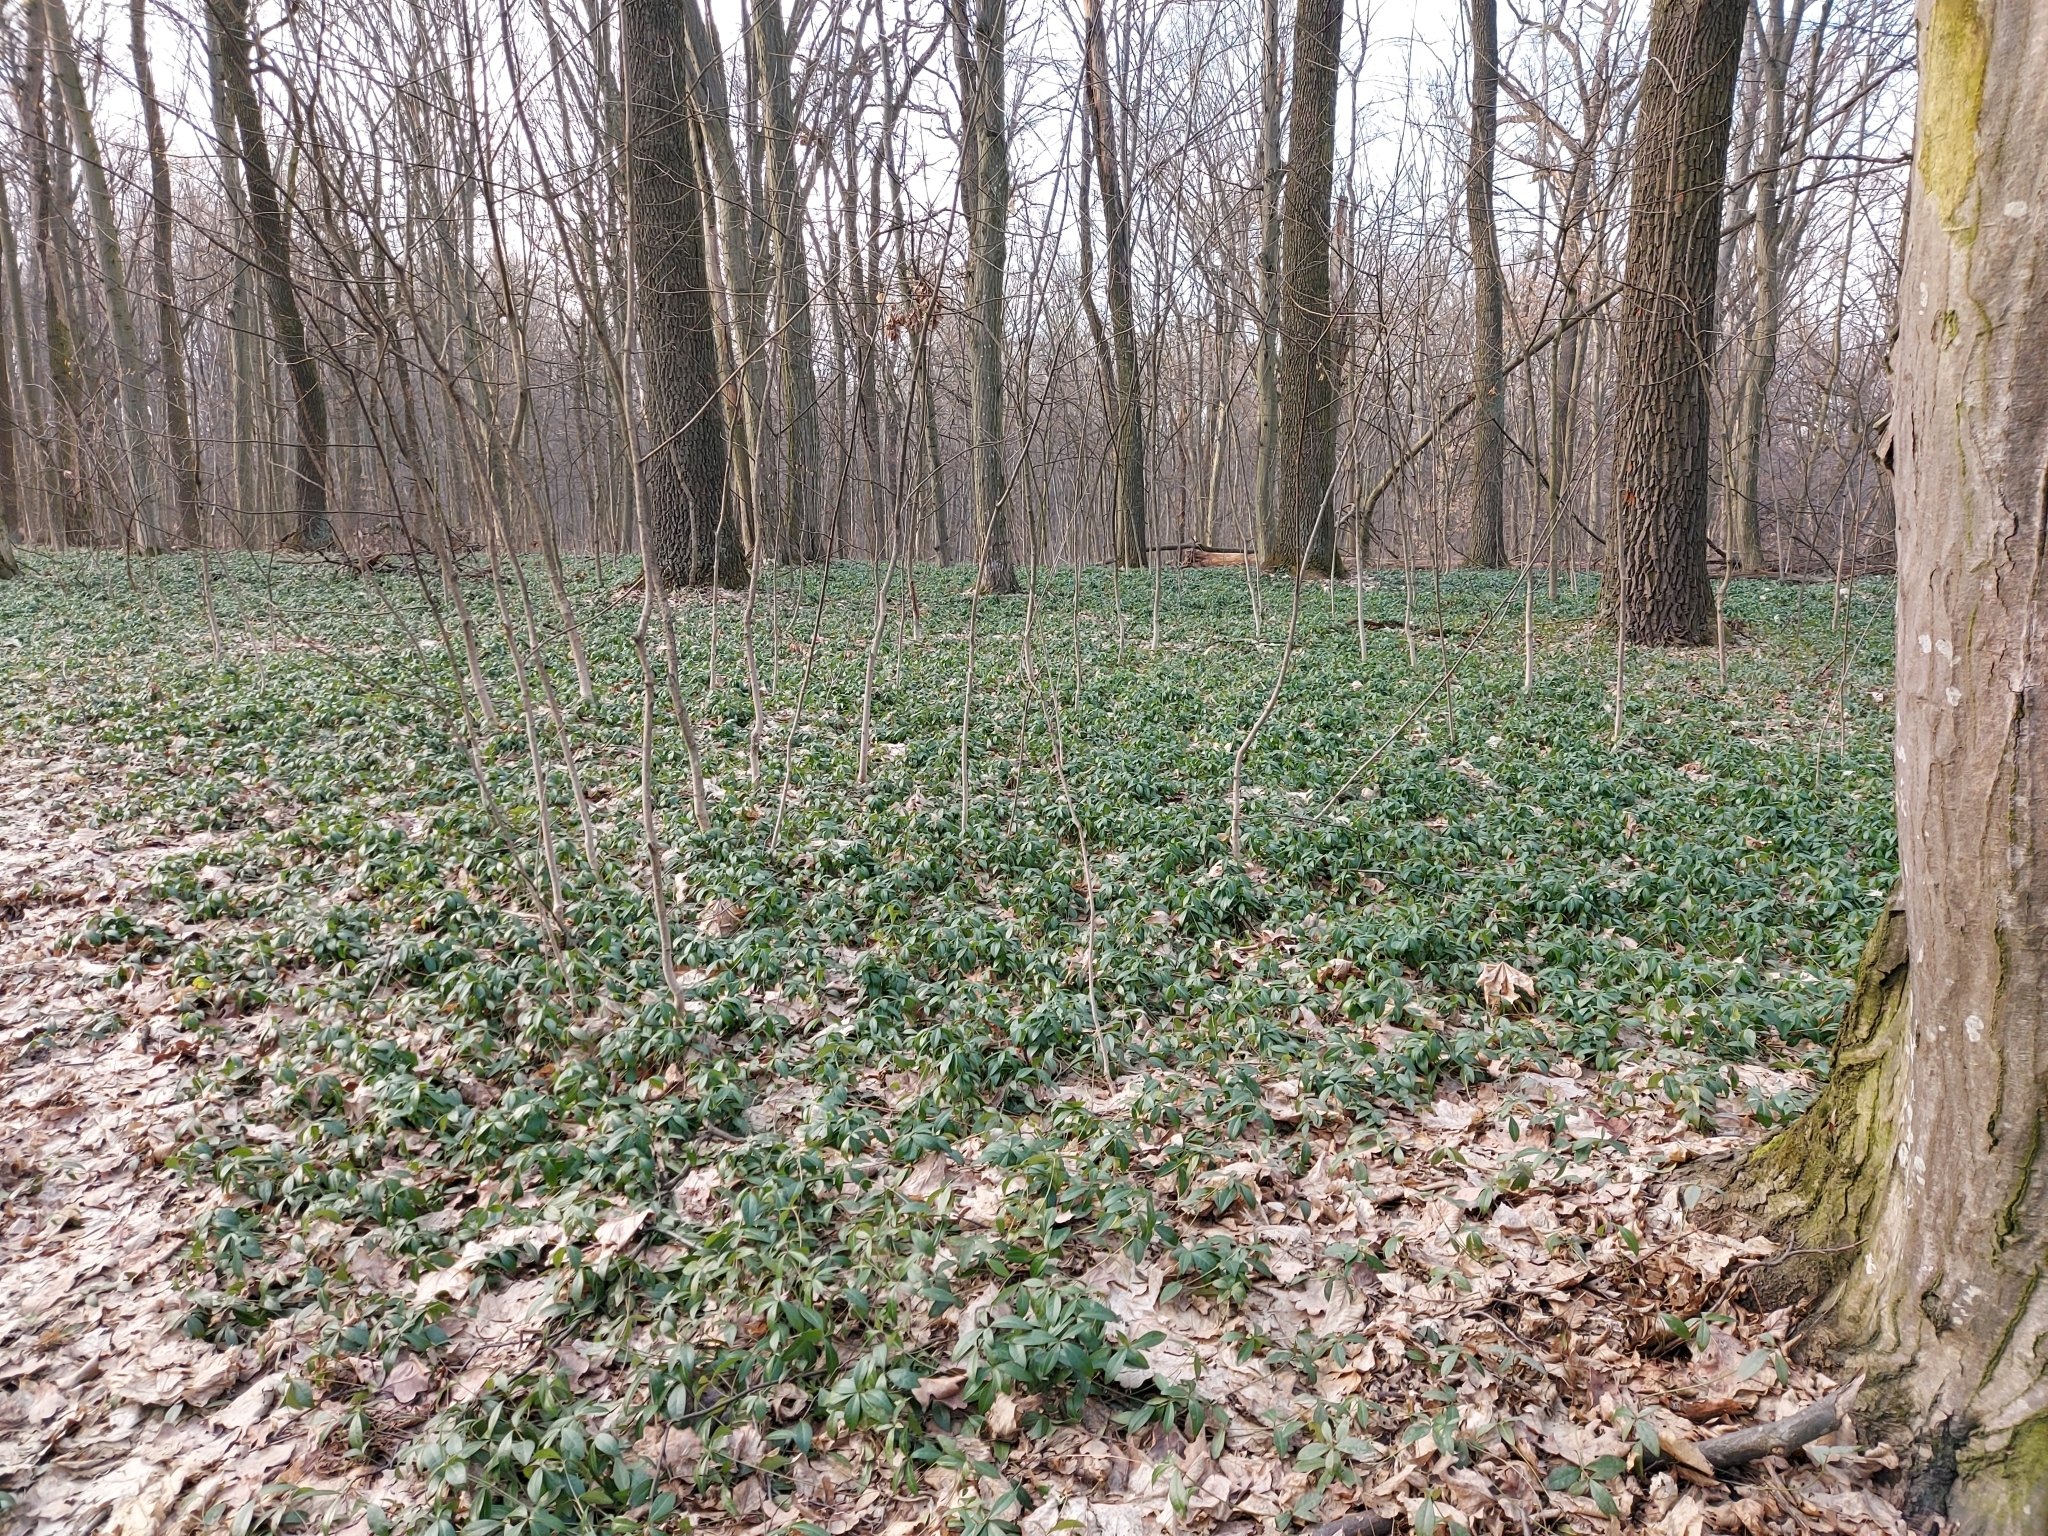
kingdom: Plantae
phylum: Tracheophyta
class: Magnoliopsida
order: Gentianales
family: Apocynaceae
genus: Vinca
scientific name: Vinca minor
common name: Lesser periwinkle
